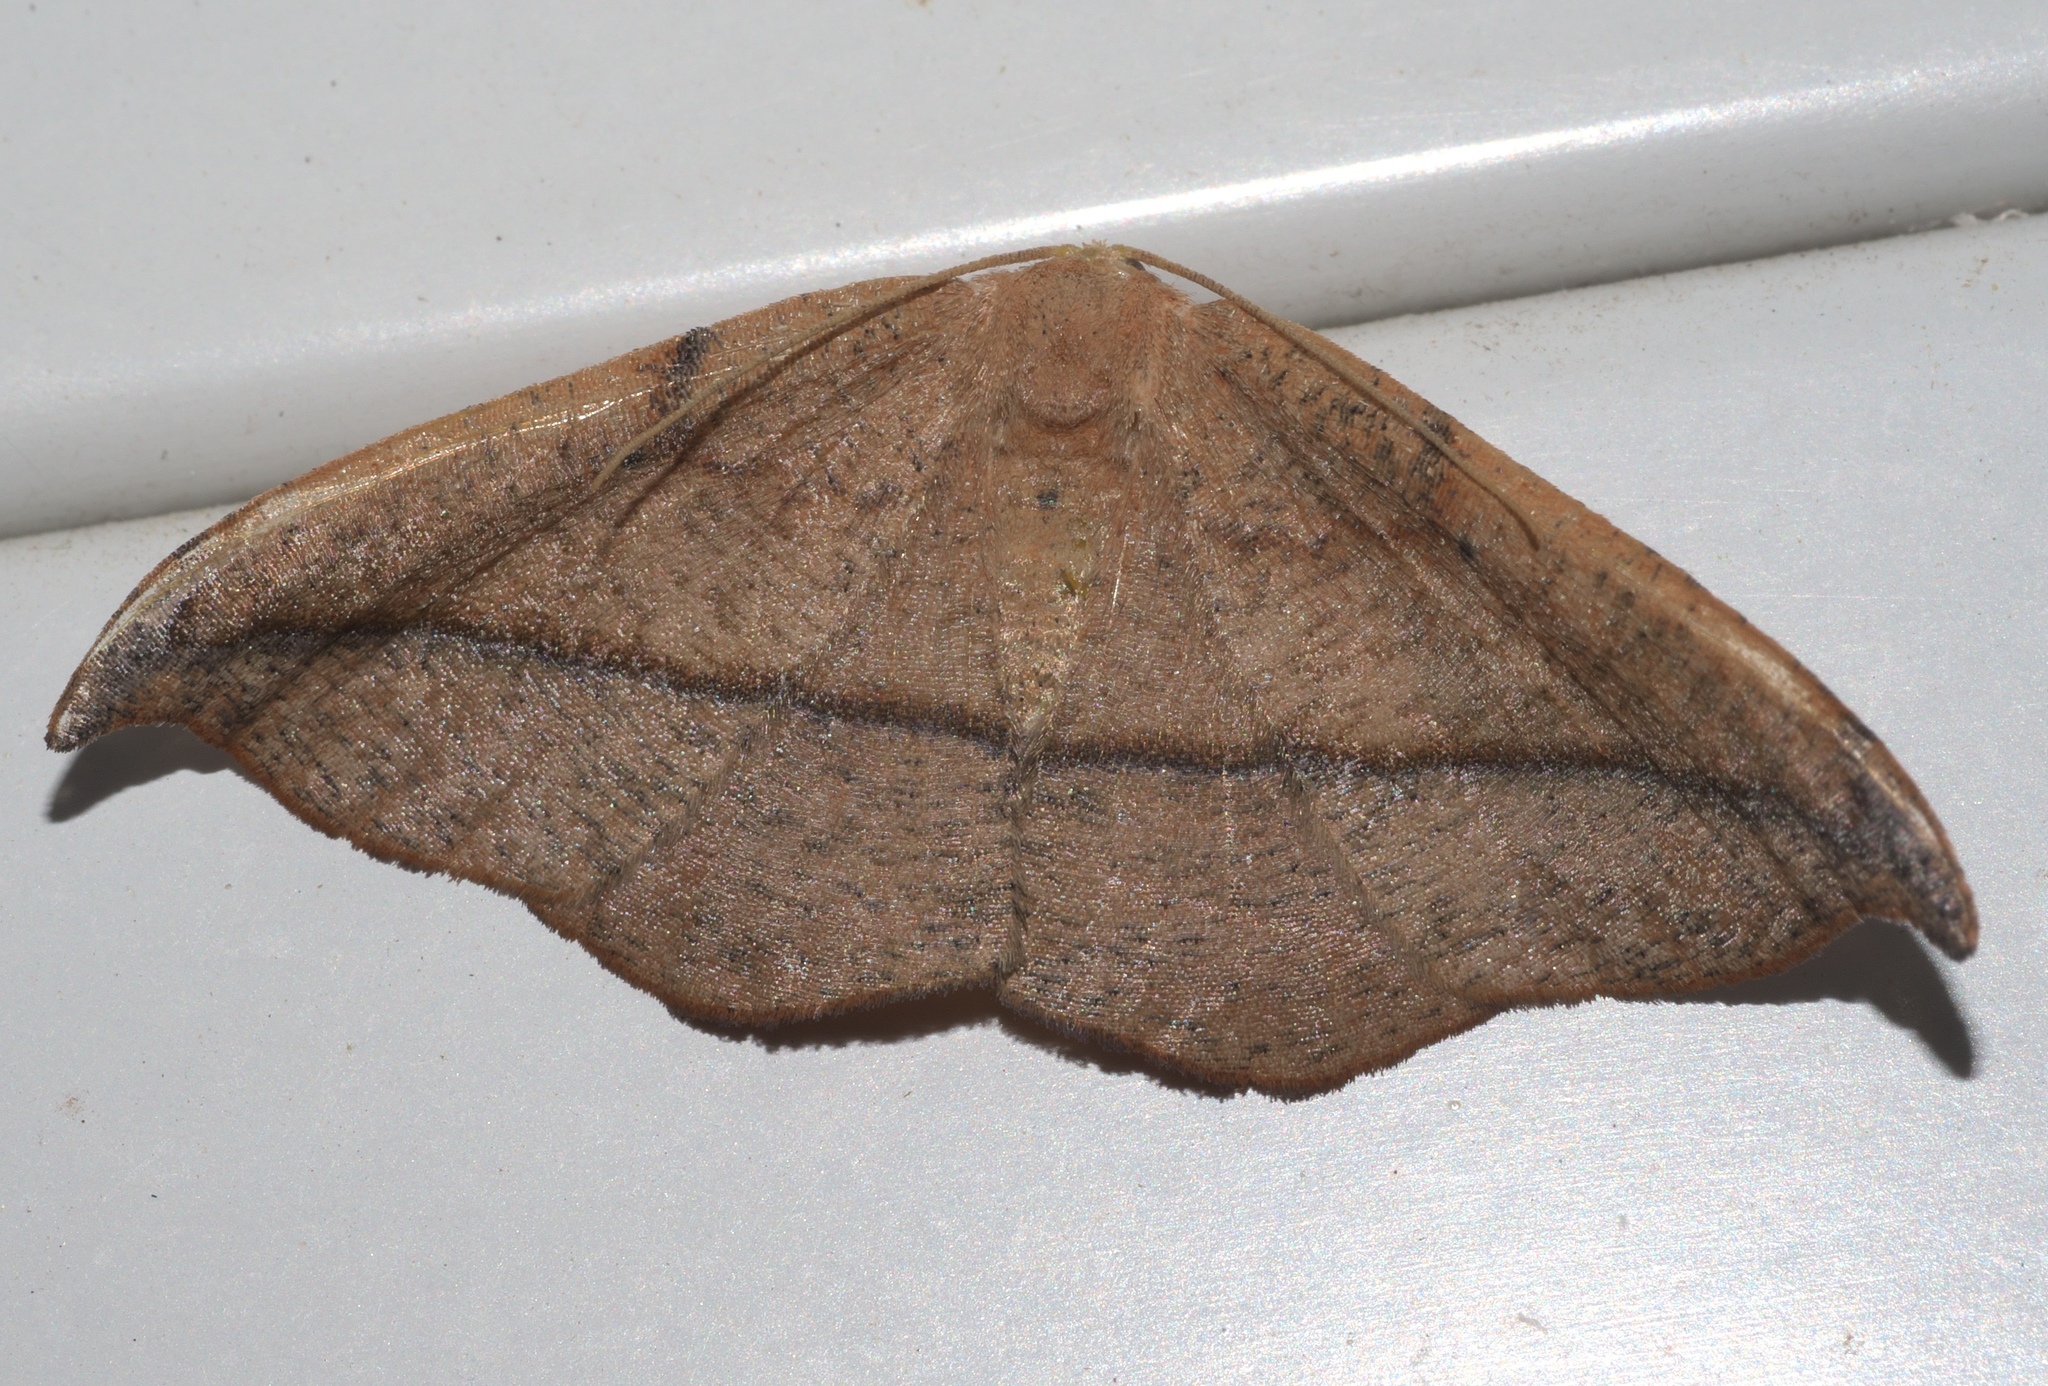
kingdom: Animalia
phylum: Arthropoda
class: Insecta
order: Lepidoptera
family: Geometridae
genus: Patalene
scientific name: Patalene olyzonaria
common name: Juniper geometer moth
